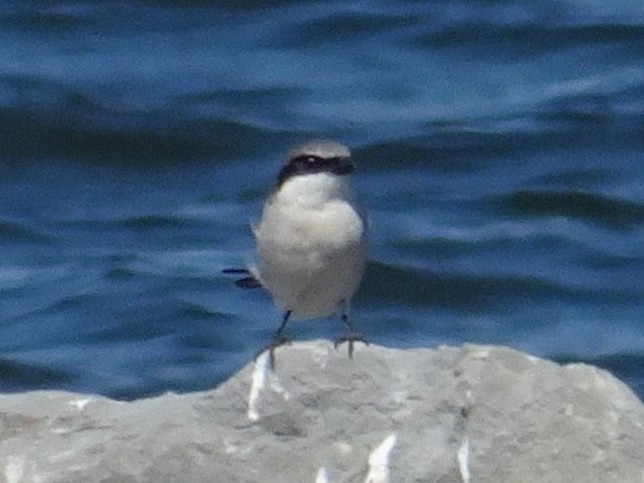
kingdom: Animalia
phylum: Chordata
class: Aves
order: Passeriformes
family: Laniidae
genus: Lanius
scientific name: Lanius ludovicianus
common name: Loggerhead shrike
